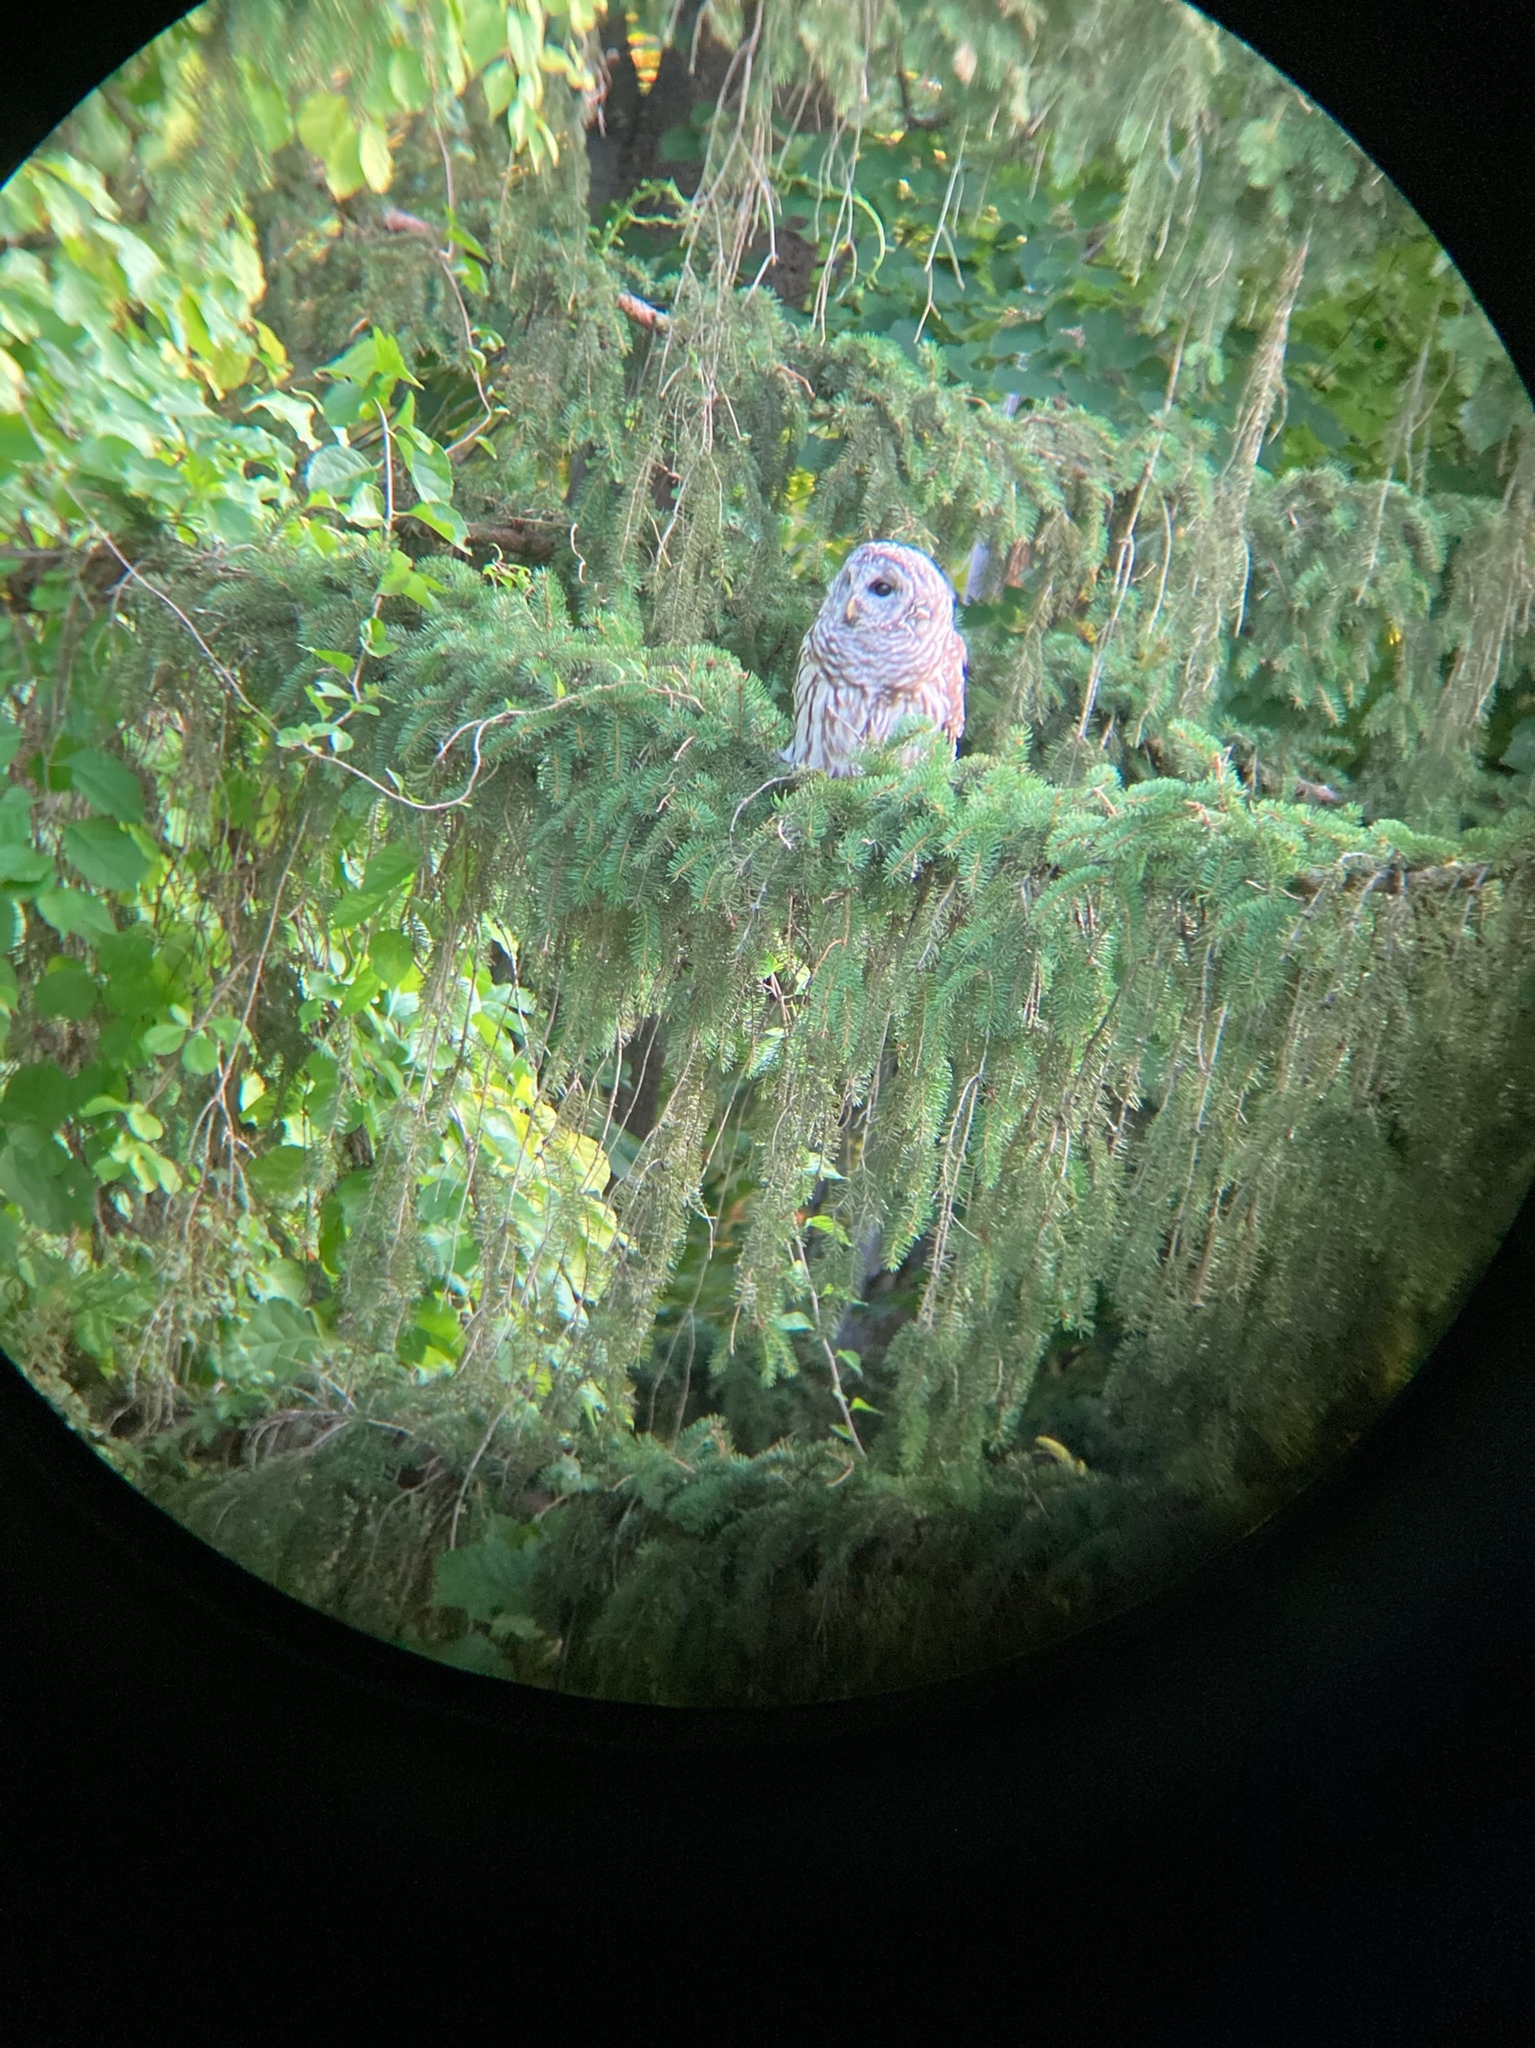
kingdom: Animalia
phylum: Chordata
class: Aves
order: Strigiformes
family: Strigidae
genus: Strix
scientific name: Strix varia
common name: Barred owl
